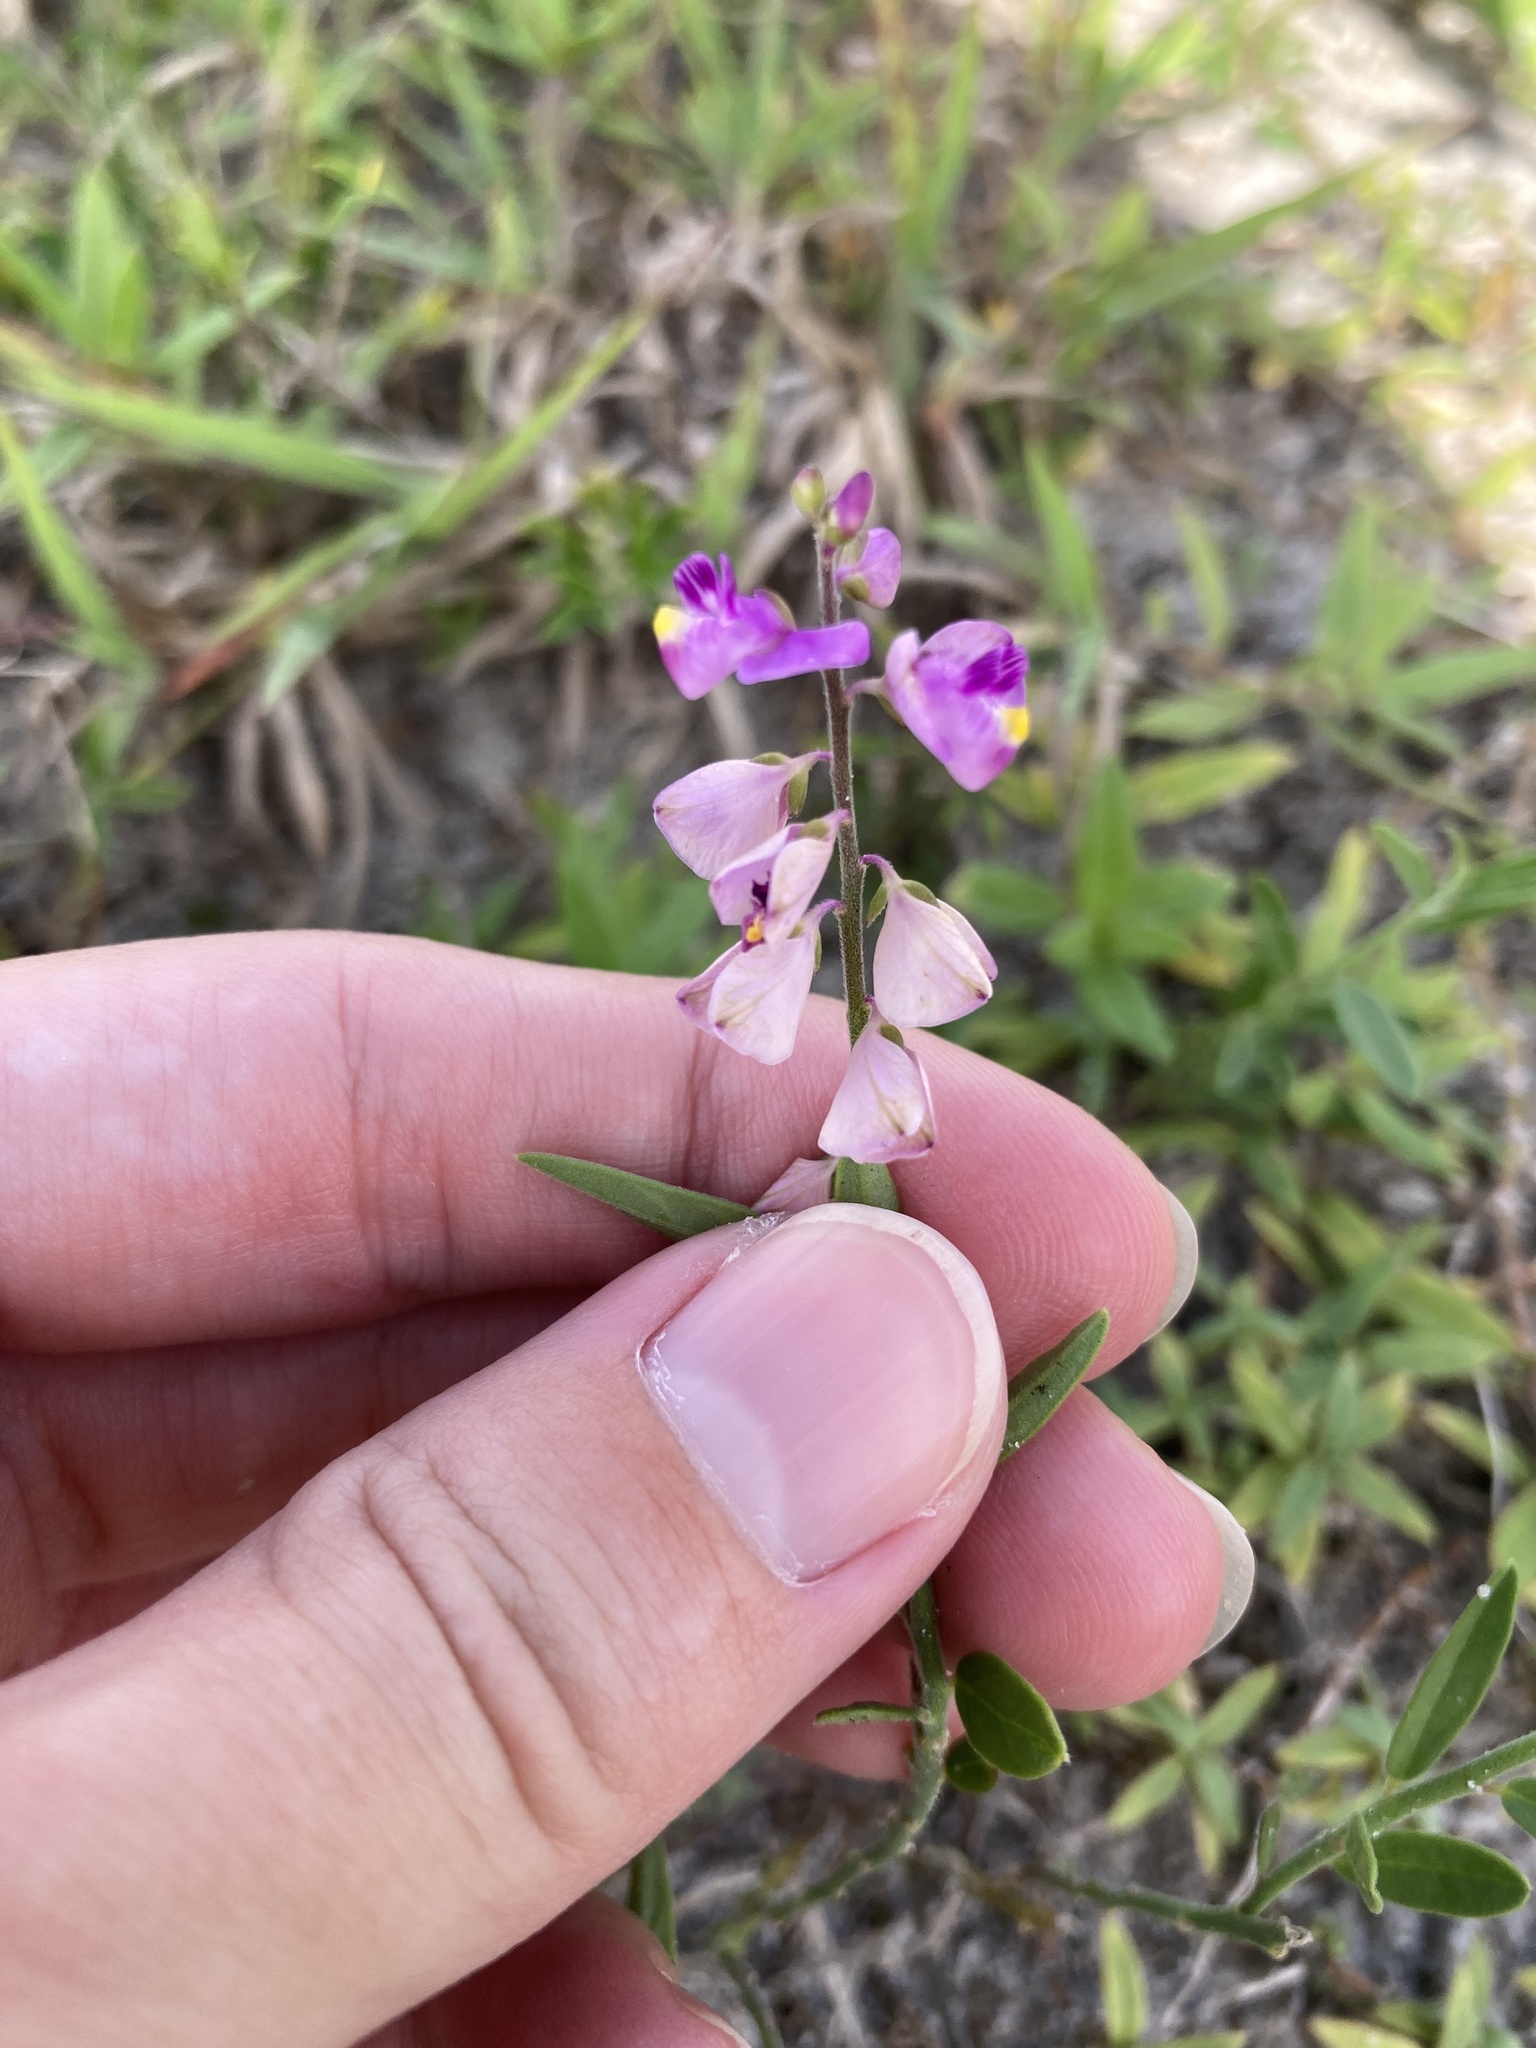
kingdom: Plantae
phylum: Tracheophyta
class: Magnoliopsida
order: Fabales
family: Polygalaceae
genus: Asemeia
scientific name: Asemeia grandiflora
